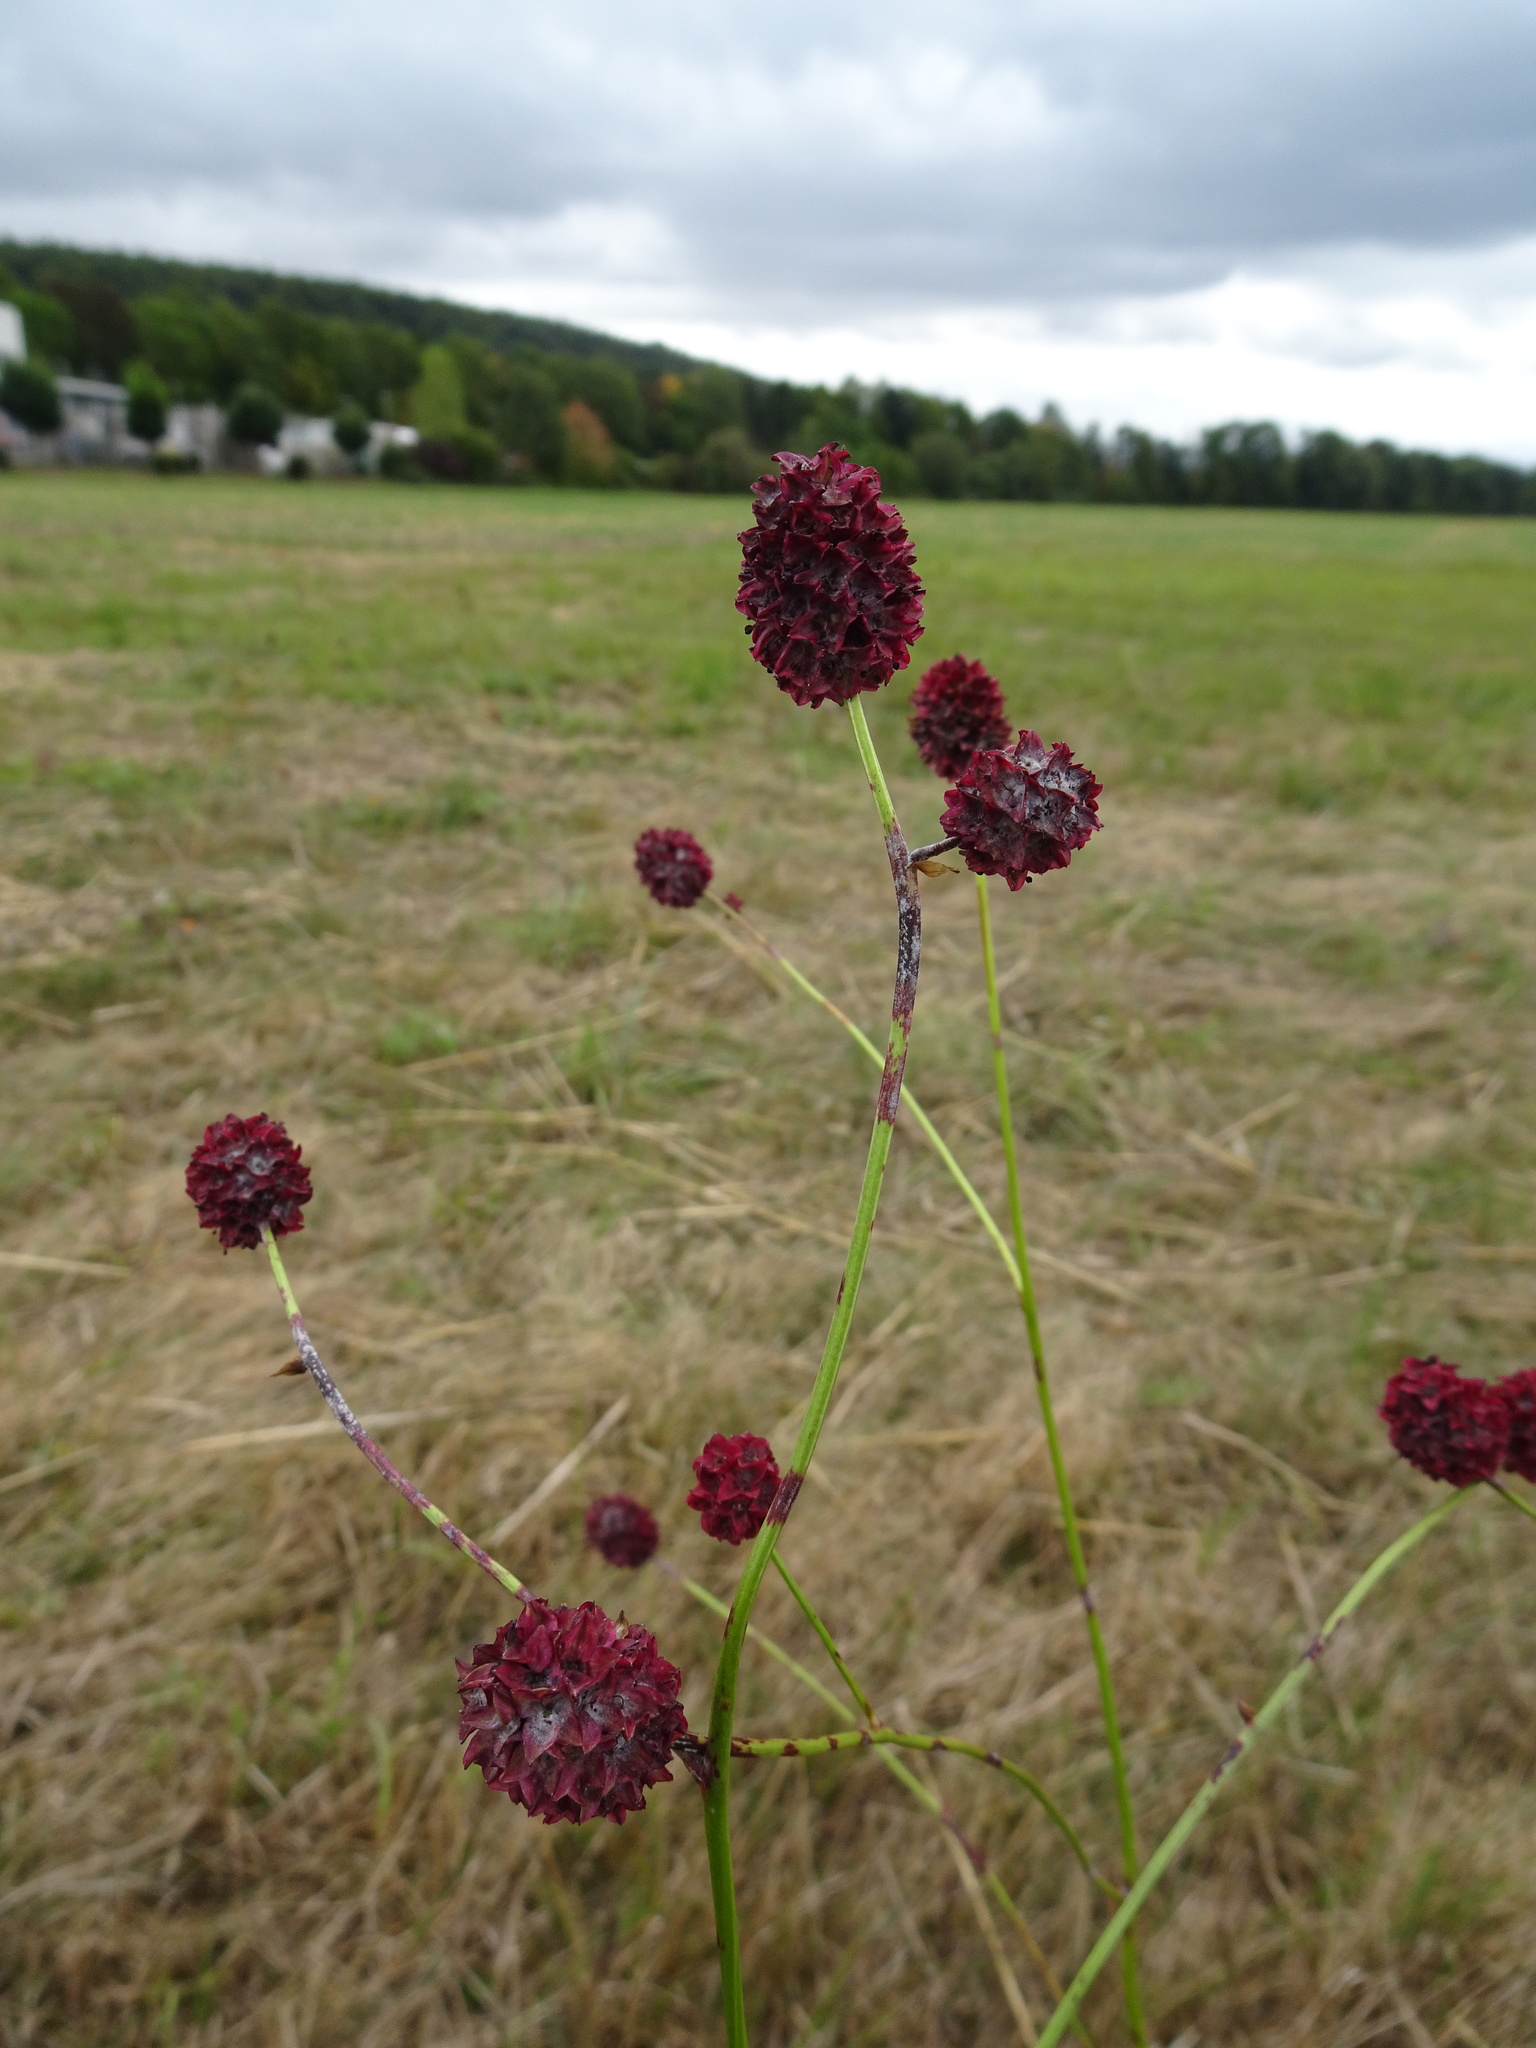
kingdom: Plantae
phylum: Tracheophyta
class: Magnoliopsida
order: Rosales
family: Rosaceae
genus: Sanguisorba
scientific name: Sanguisorba officinalis
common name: Great burnet
